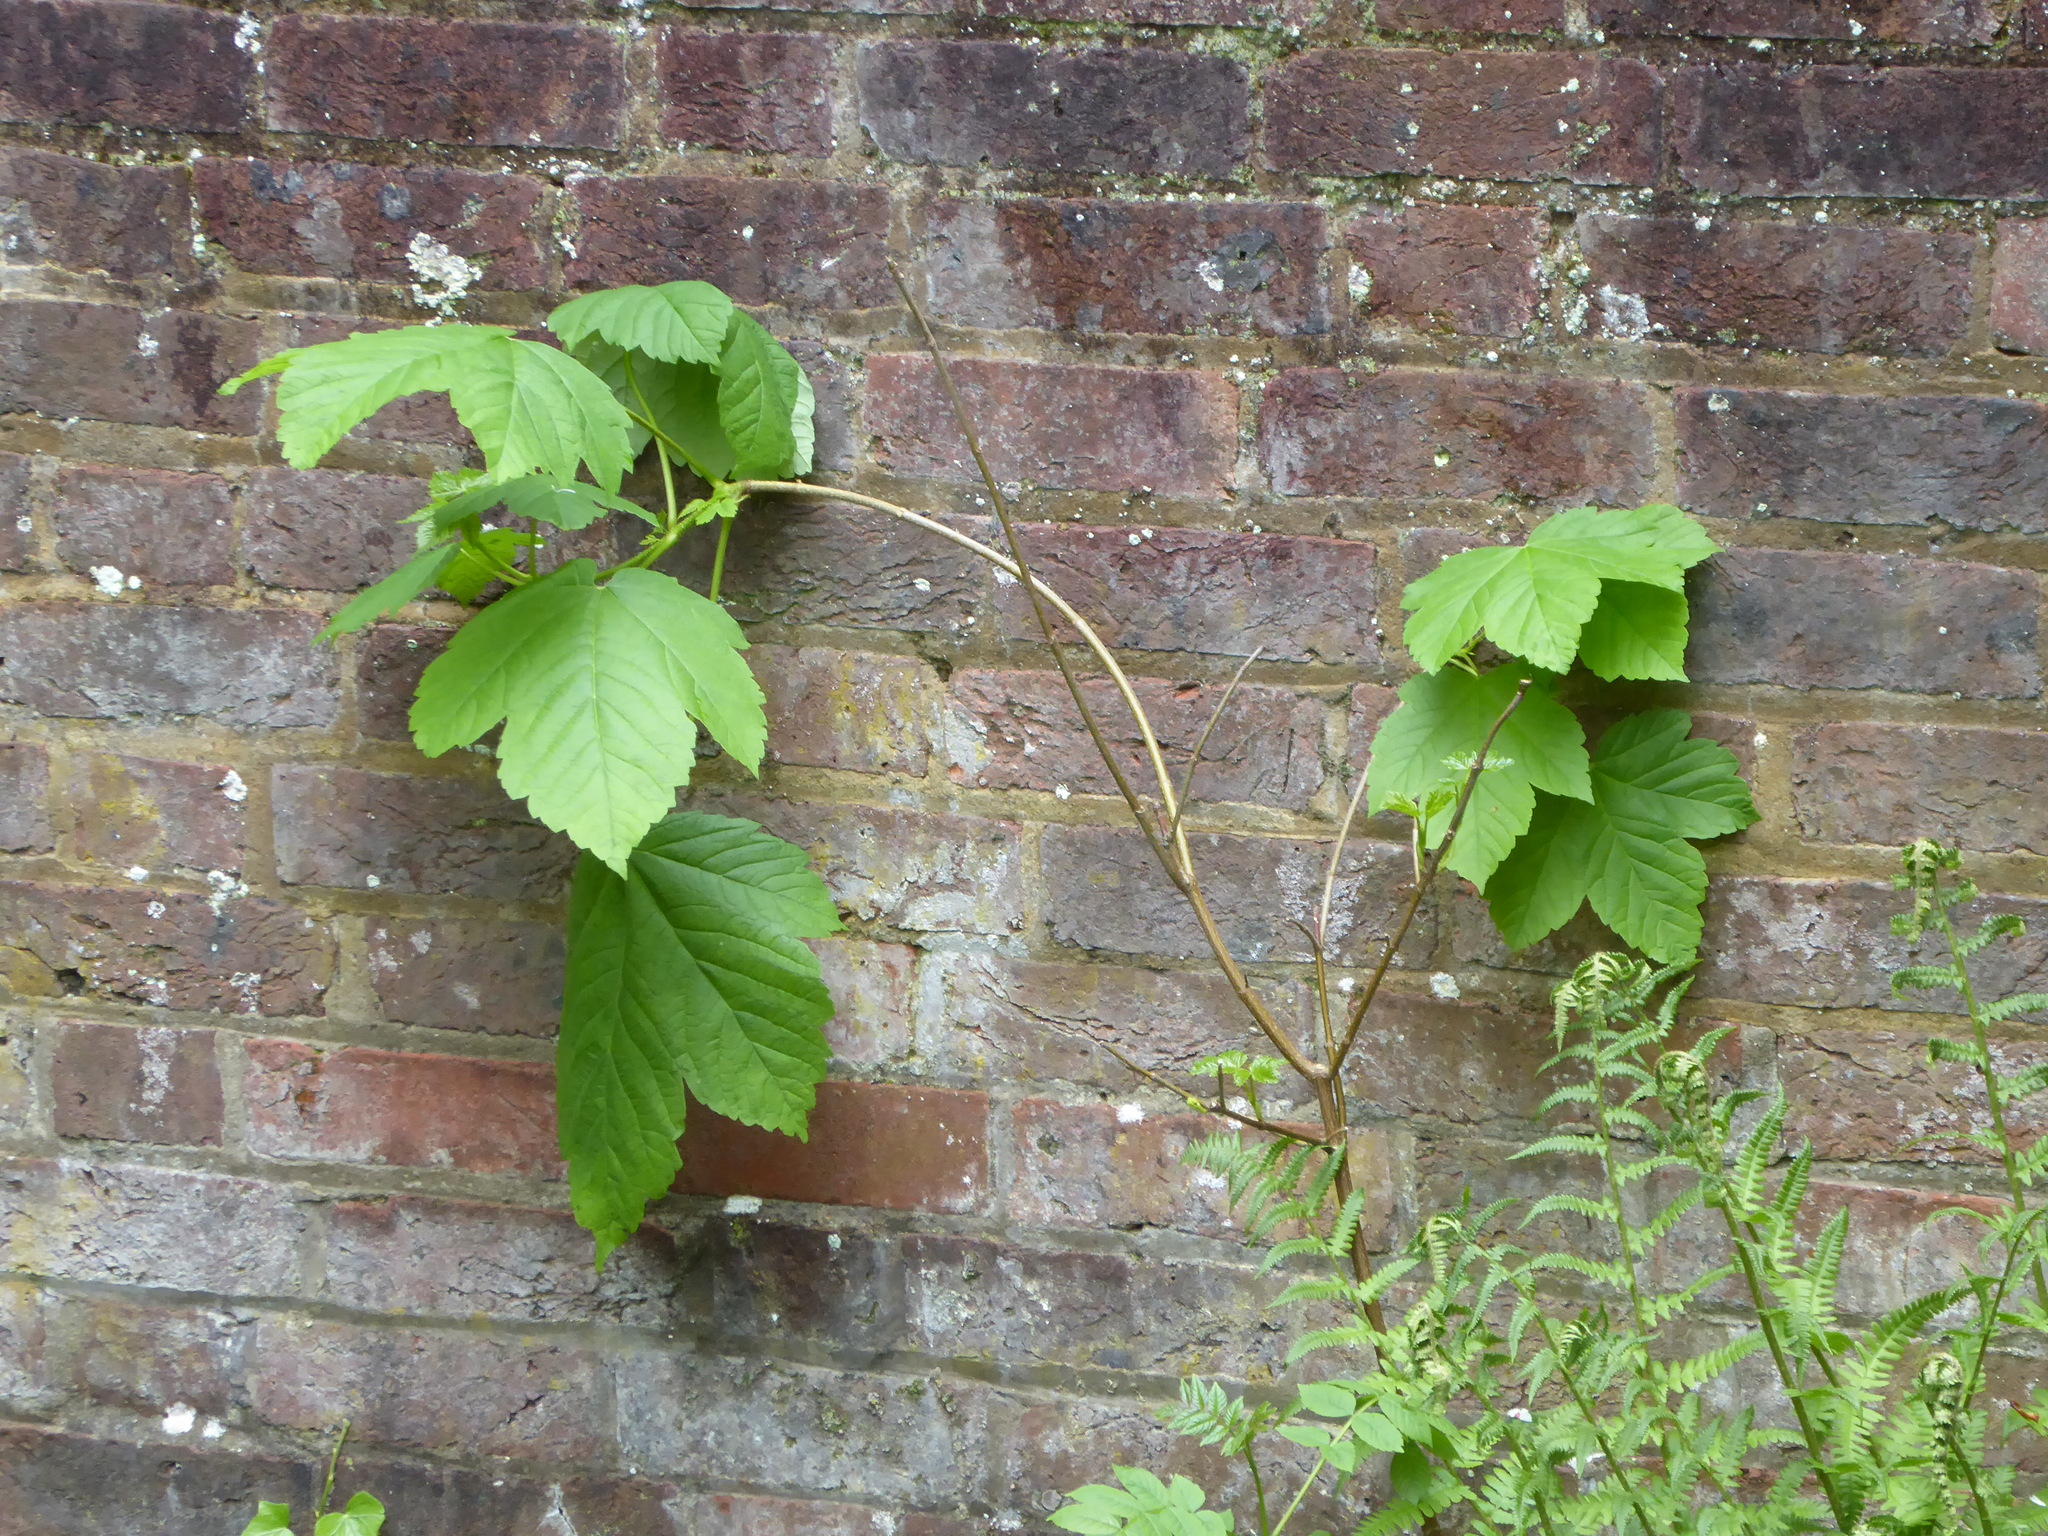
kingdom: Plantae
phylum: Tracheophyta
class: Magnoliopsida
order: Sapindales
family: Sapindaceae
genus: Acer
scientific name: Acer pseudoplatanus
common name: Sycamore
